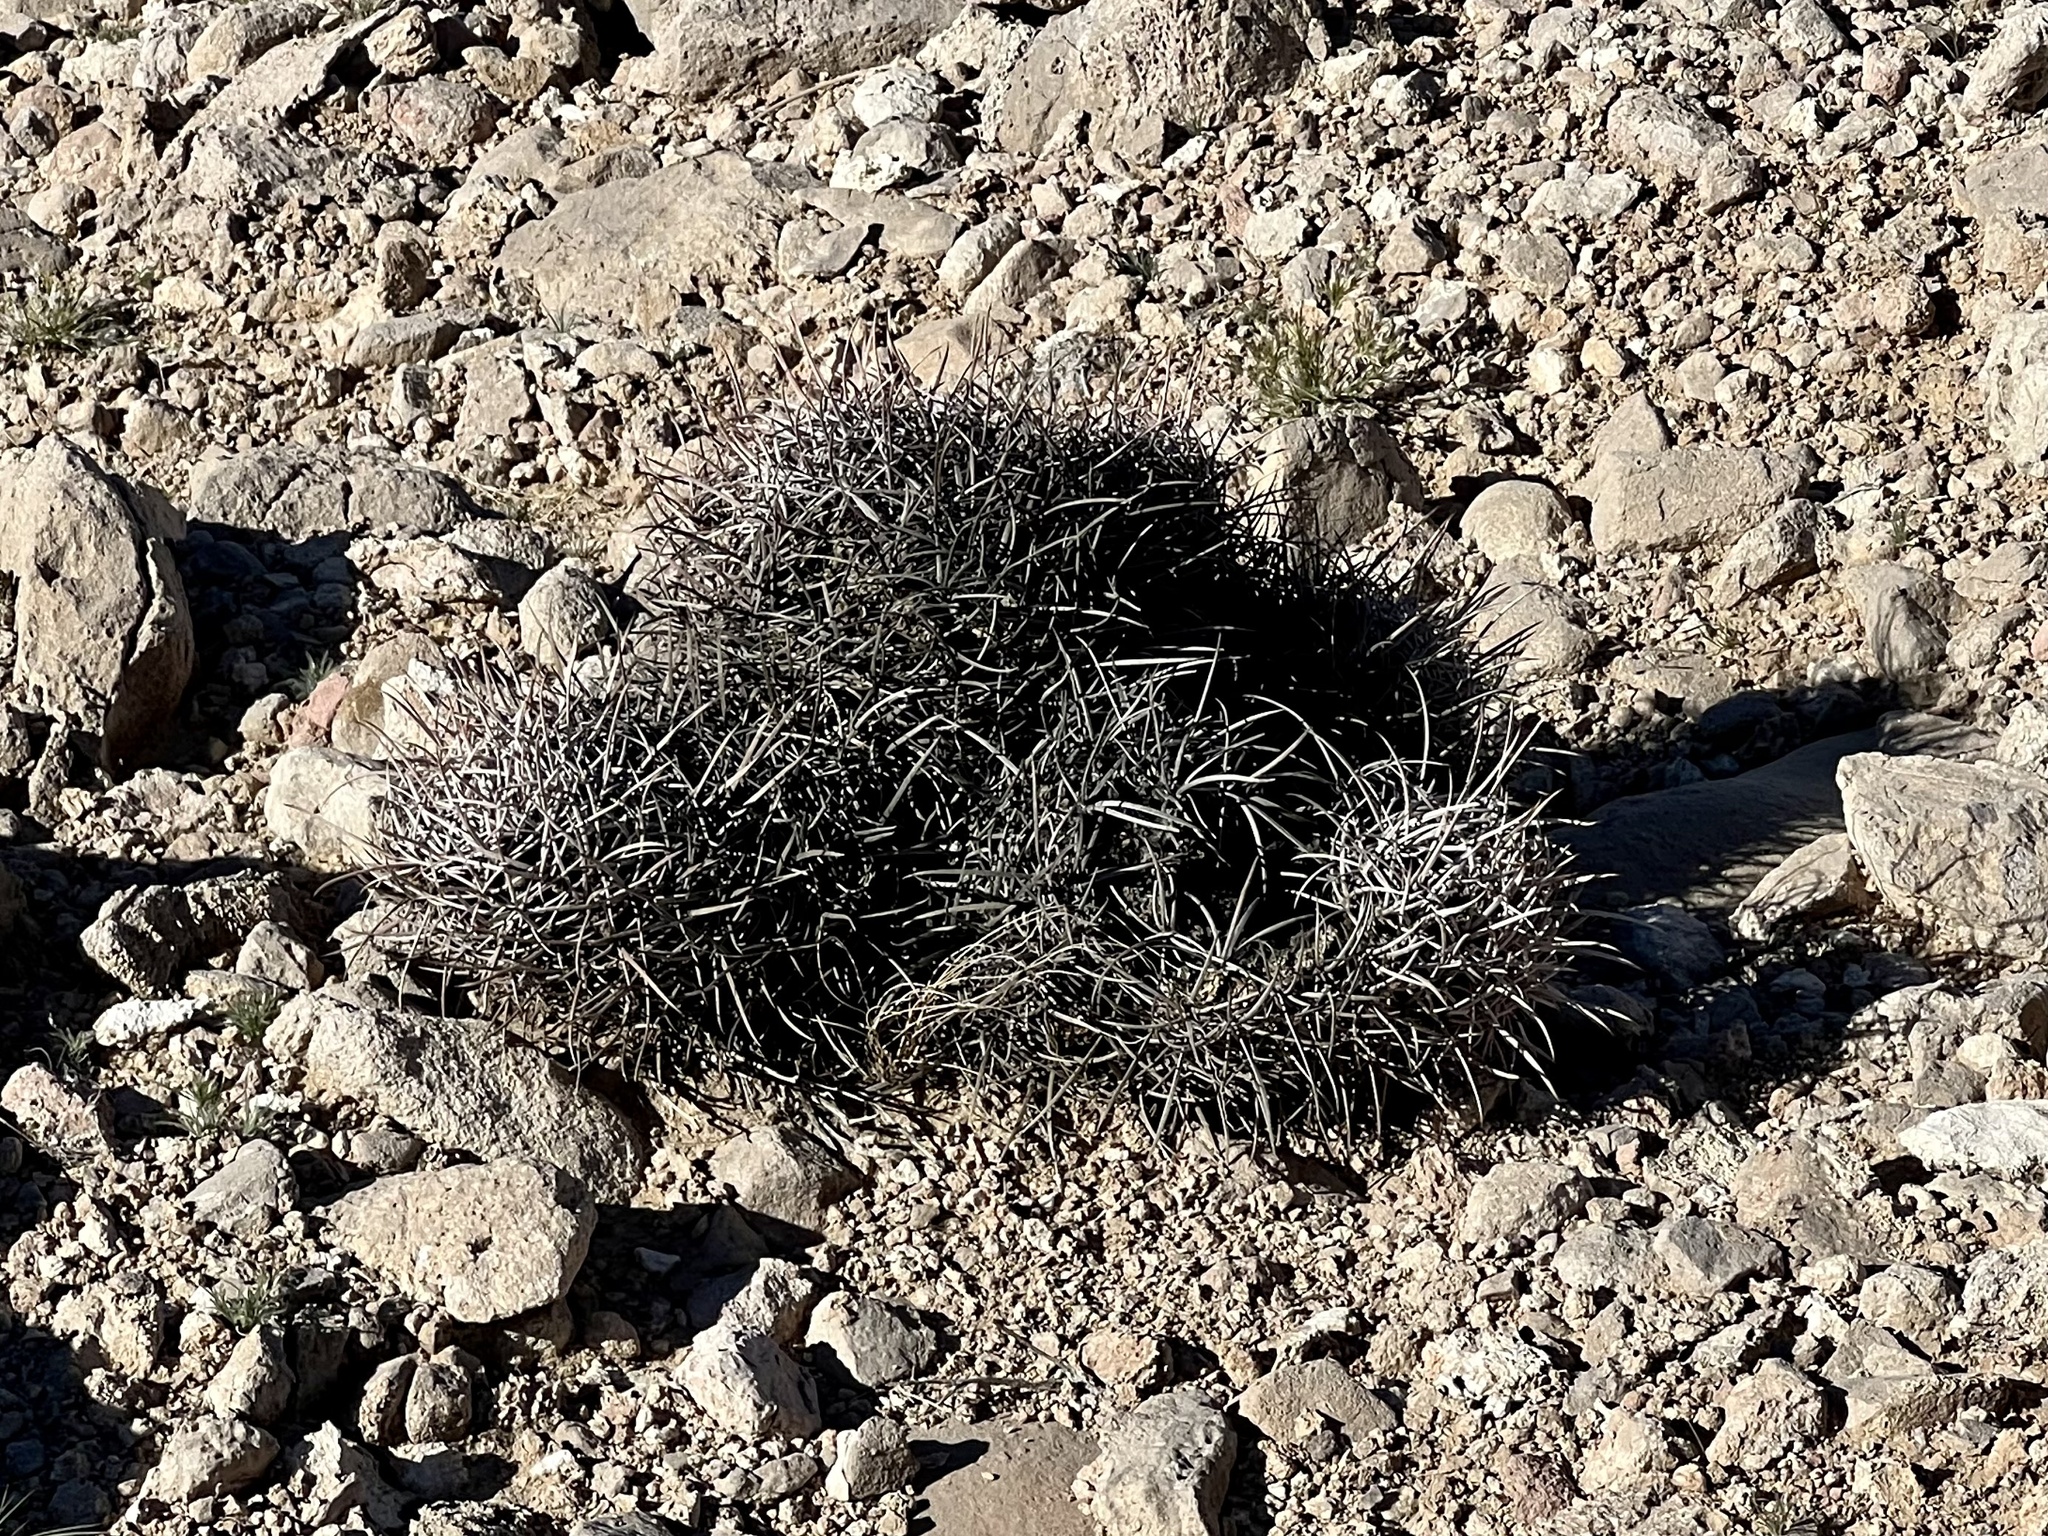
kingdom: Plantae
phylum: Tracheophyta
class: Magnoliopsida
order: Caryophyllales
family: Cactaceae
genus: Echinocactus
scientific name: Echinocactus polycephalus
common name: Cottontop cactus
